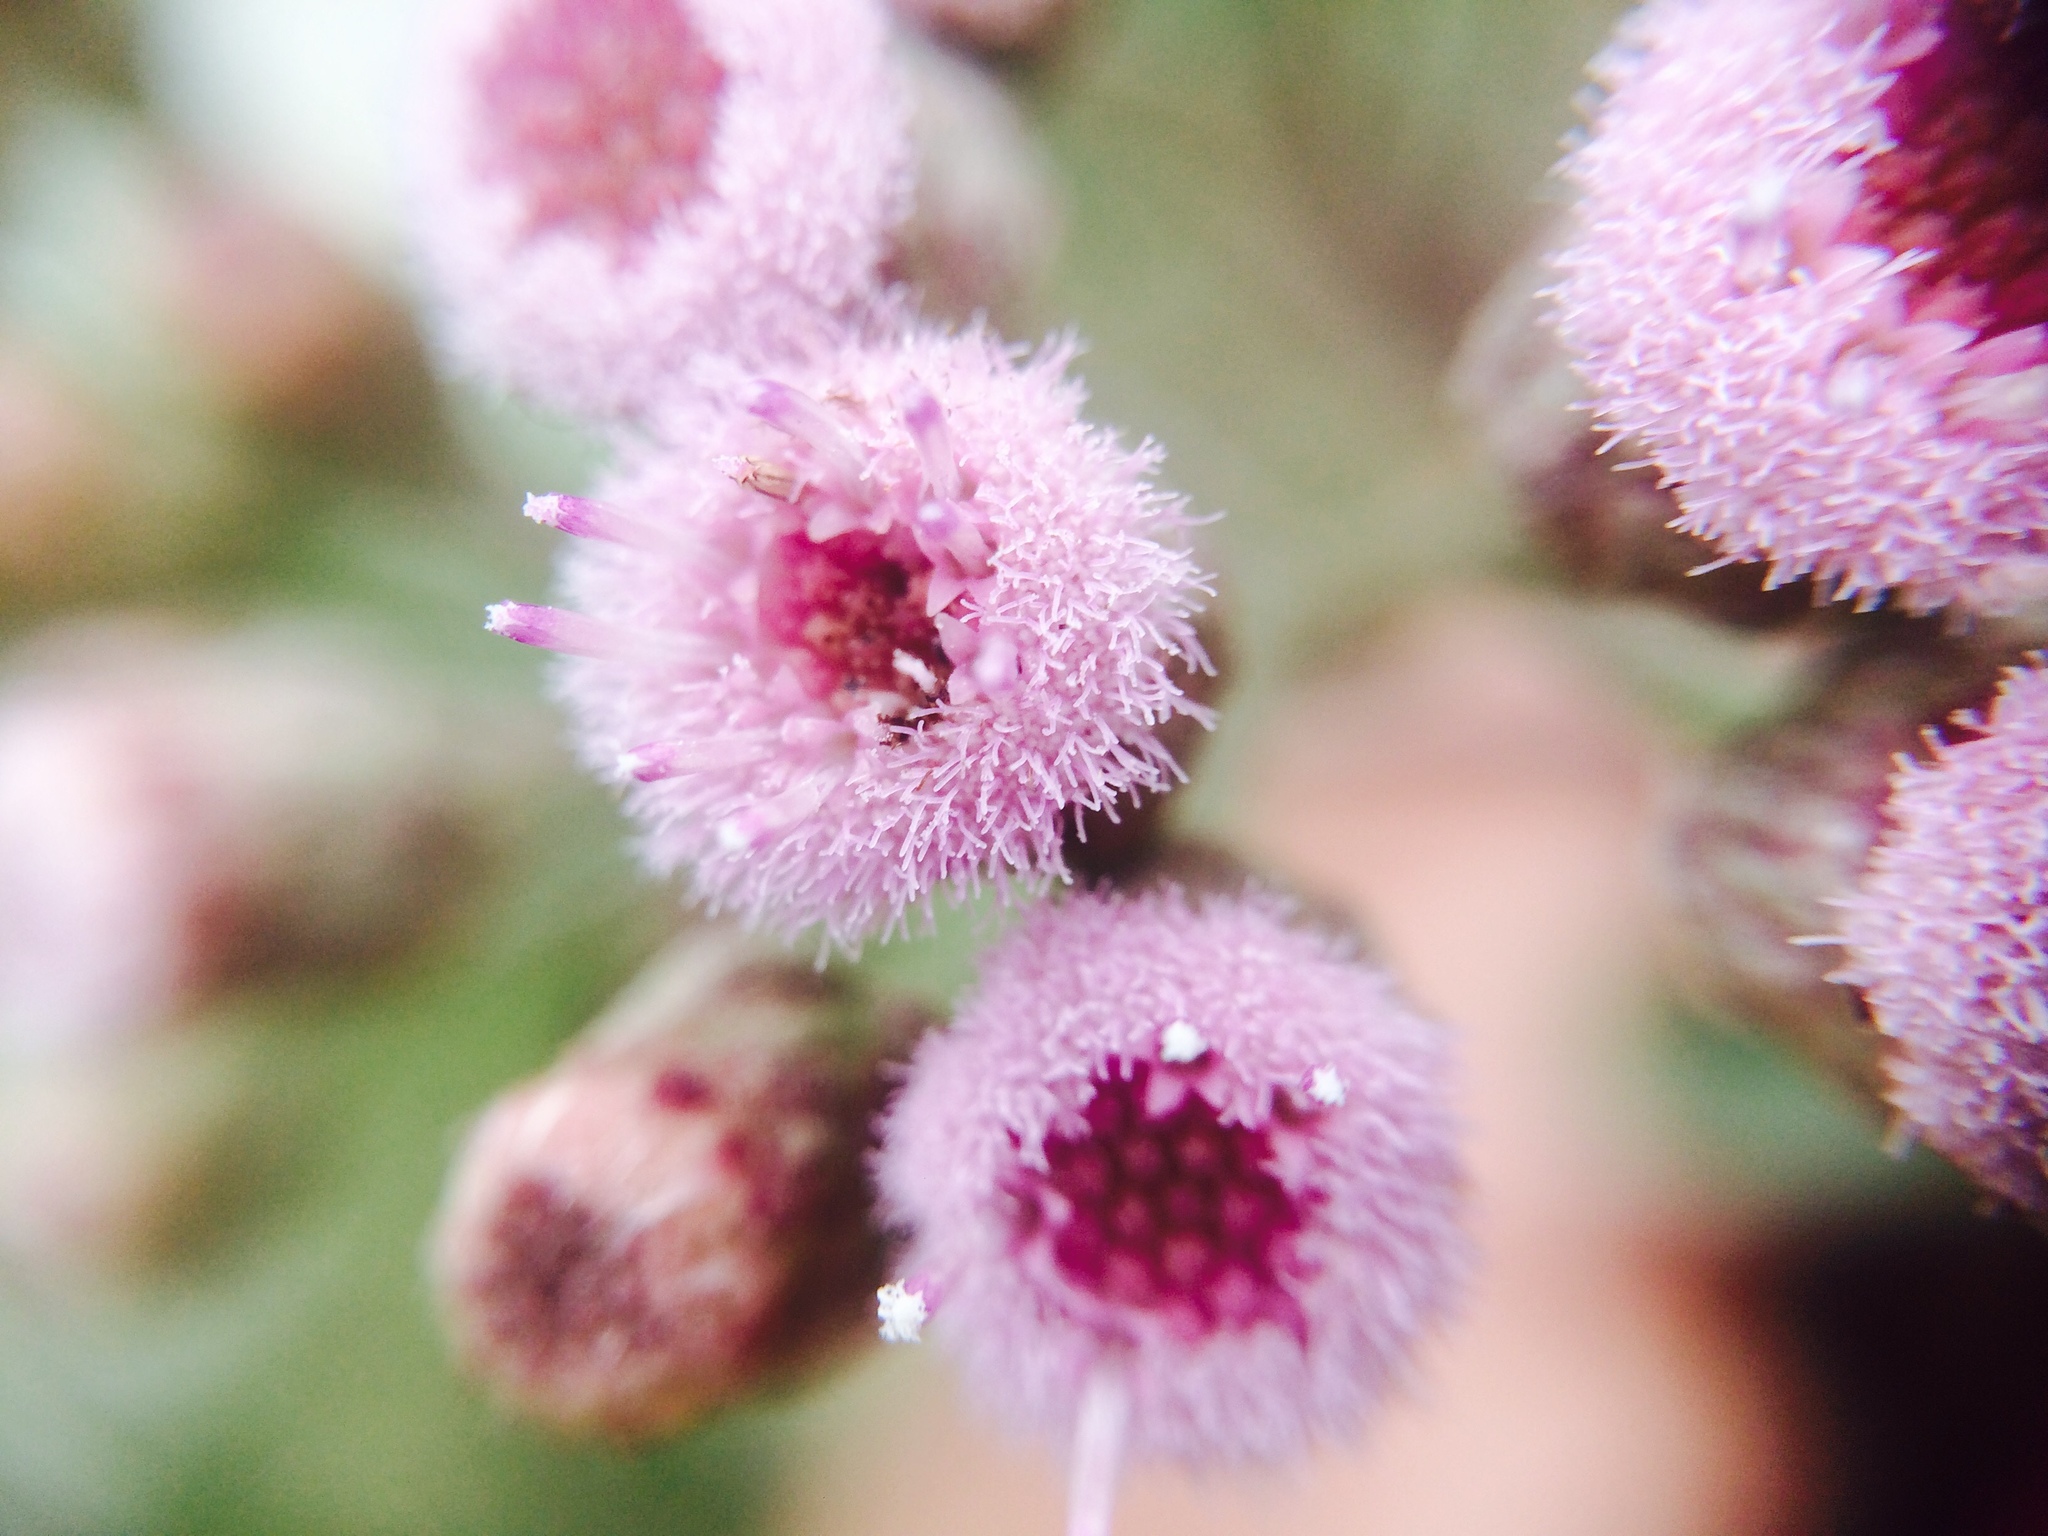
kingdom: Plantae
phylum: Tracheophyta
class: Magnoliopsida
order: Asterales
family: Asteraceae
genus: Pluchea
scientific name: Pluchea carolinensis
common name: Marsh fleabane
